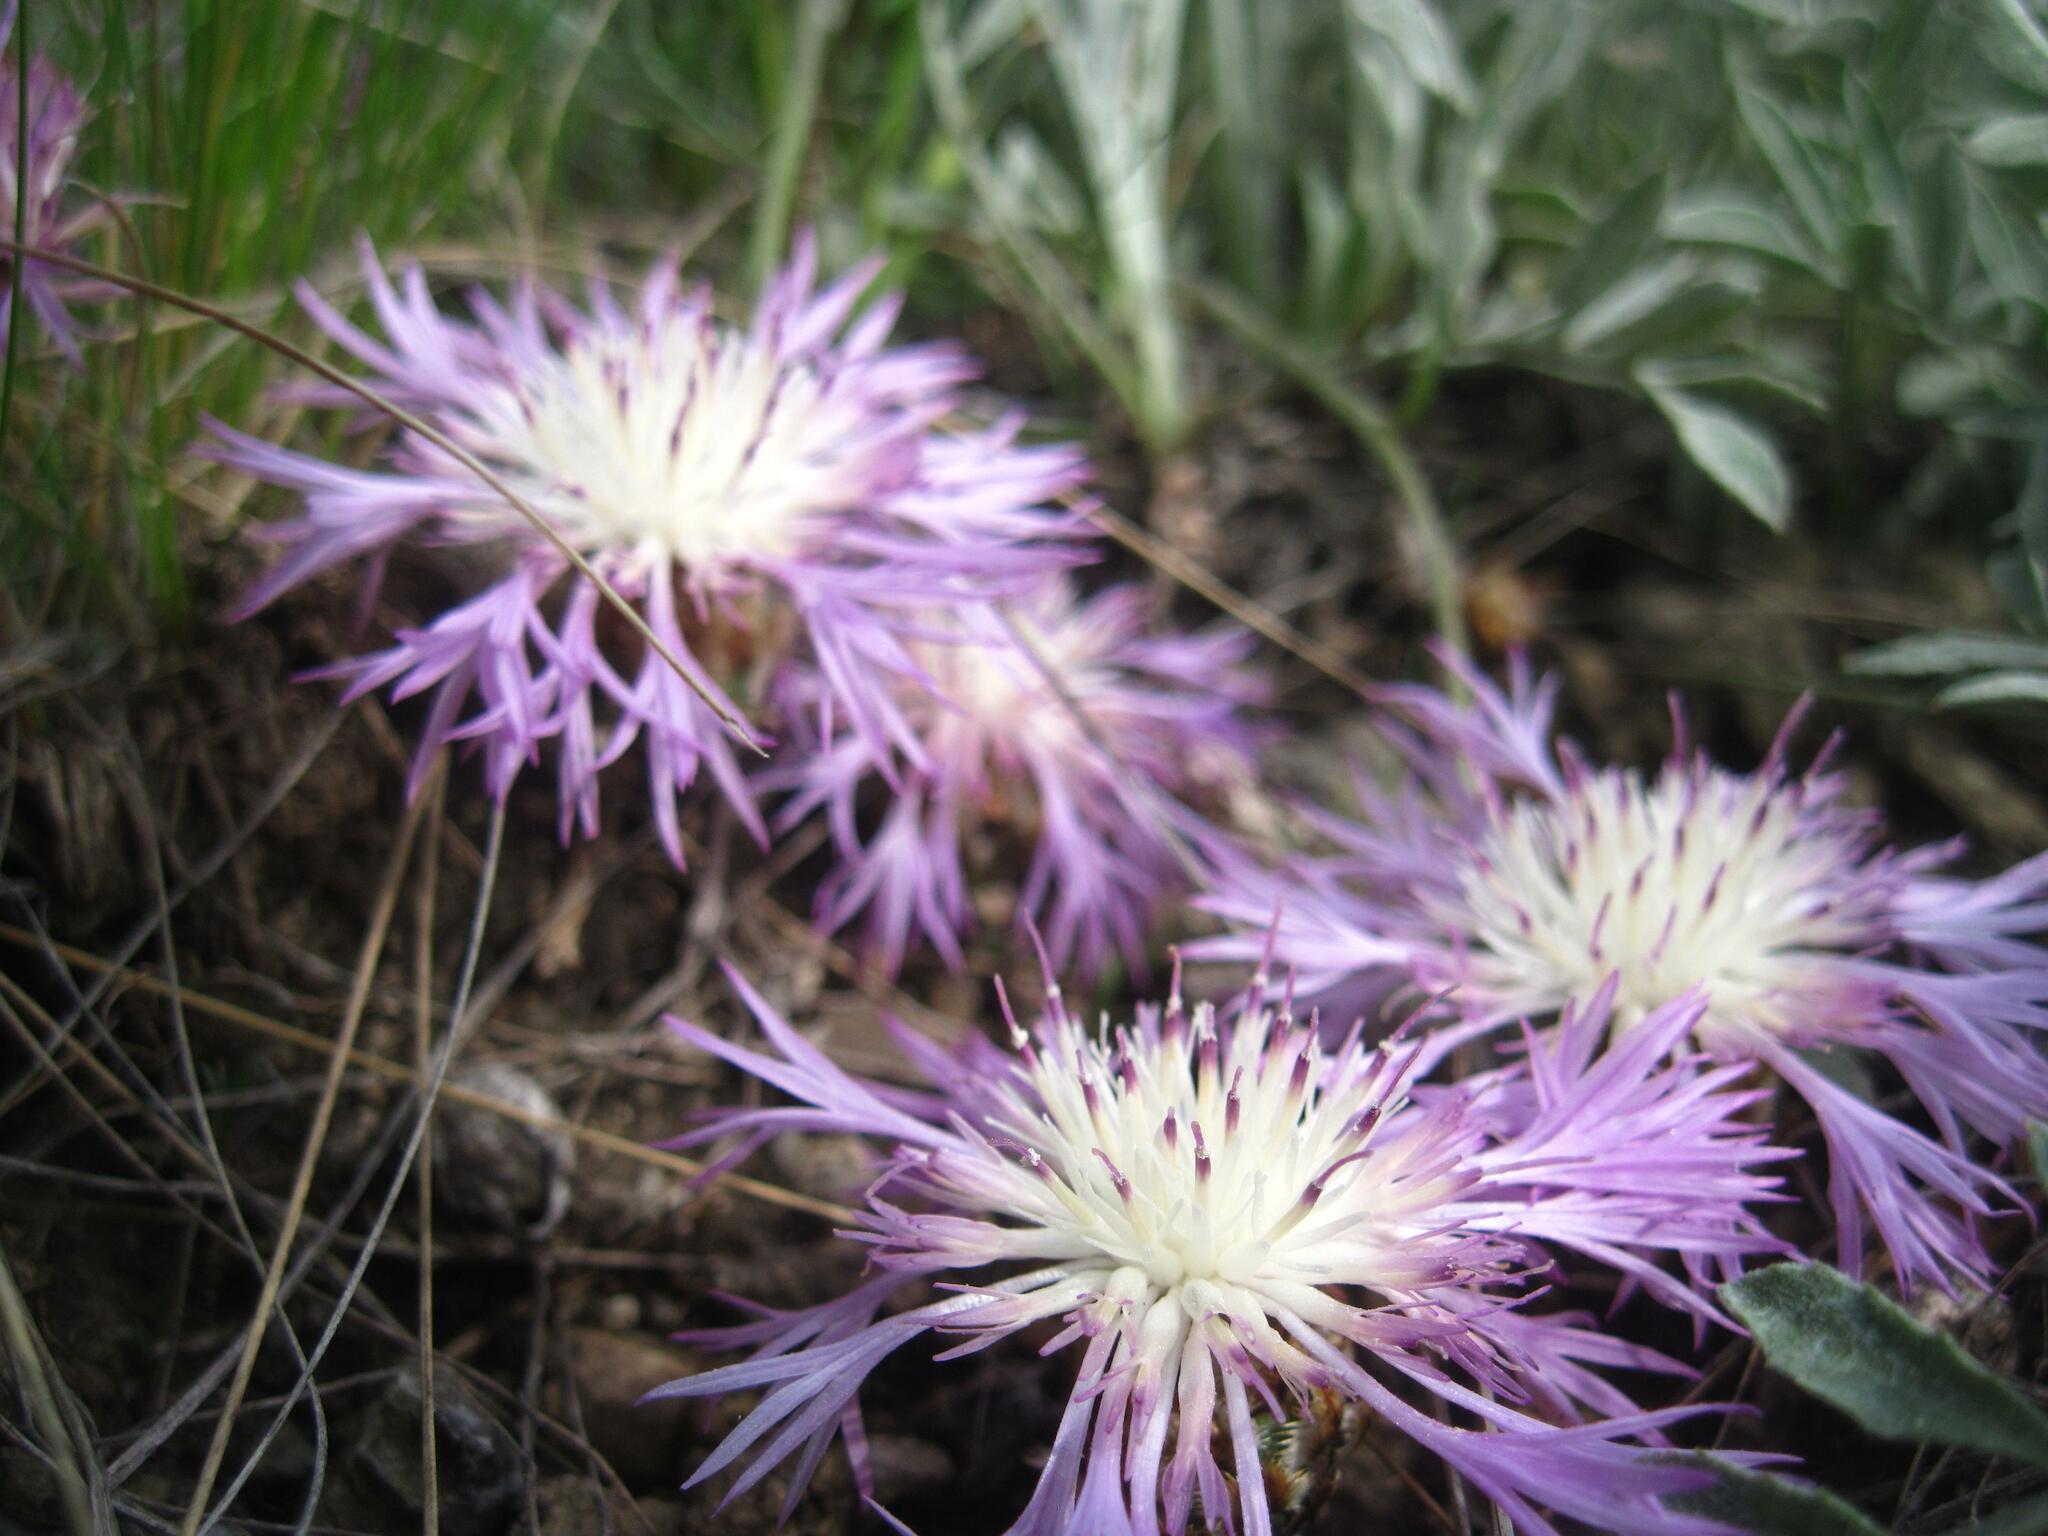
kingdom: Plantae
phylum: Tracheophyta
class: Magnoliopsida
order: Asterales
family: Asteraceae
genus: Psephellus
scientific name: Psephellus marschallianus
